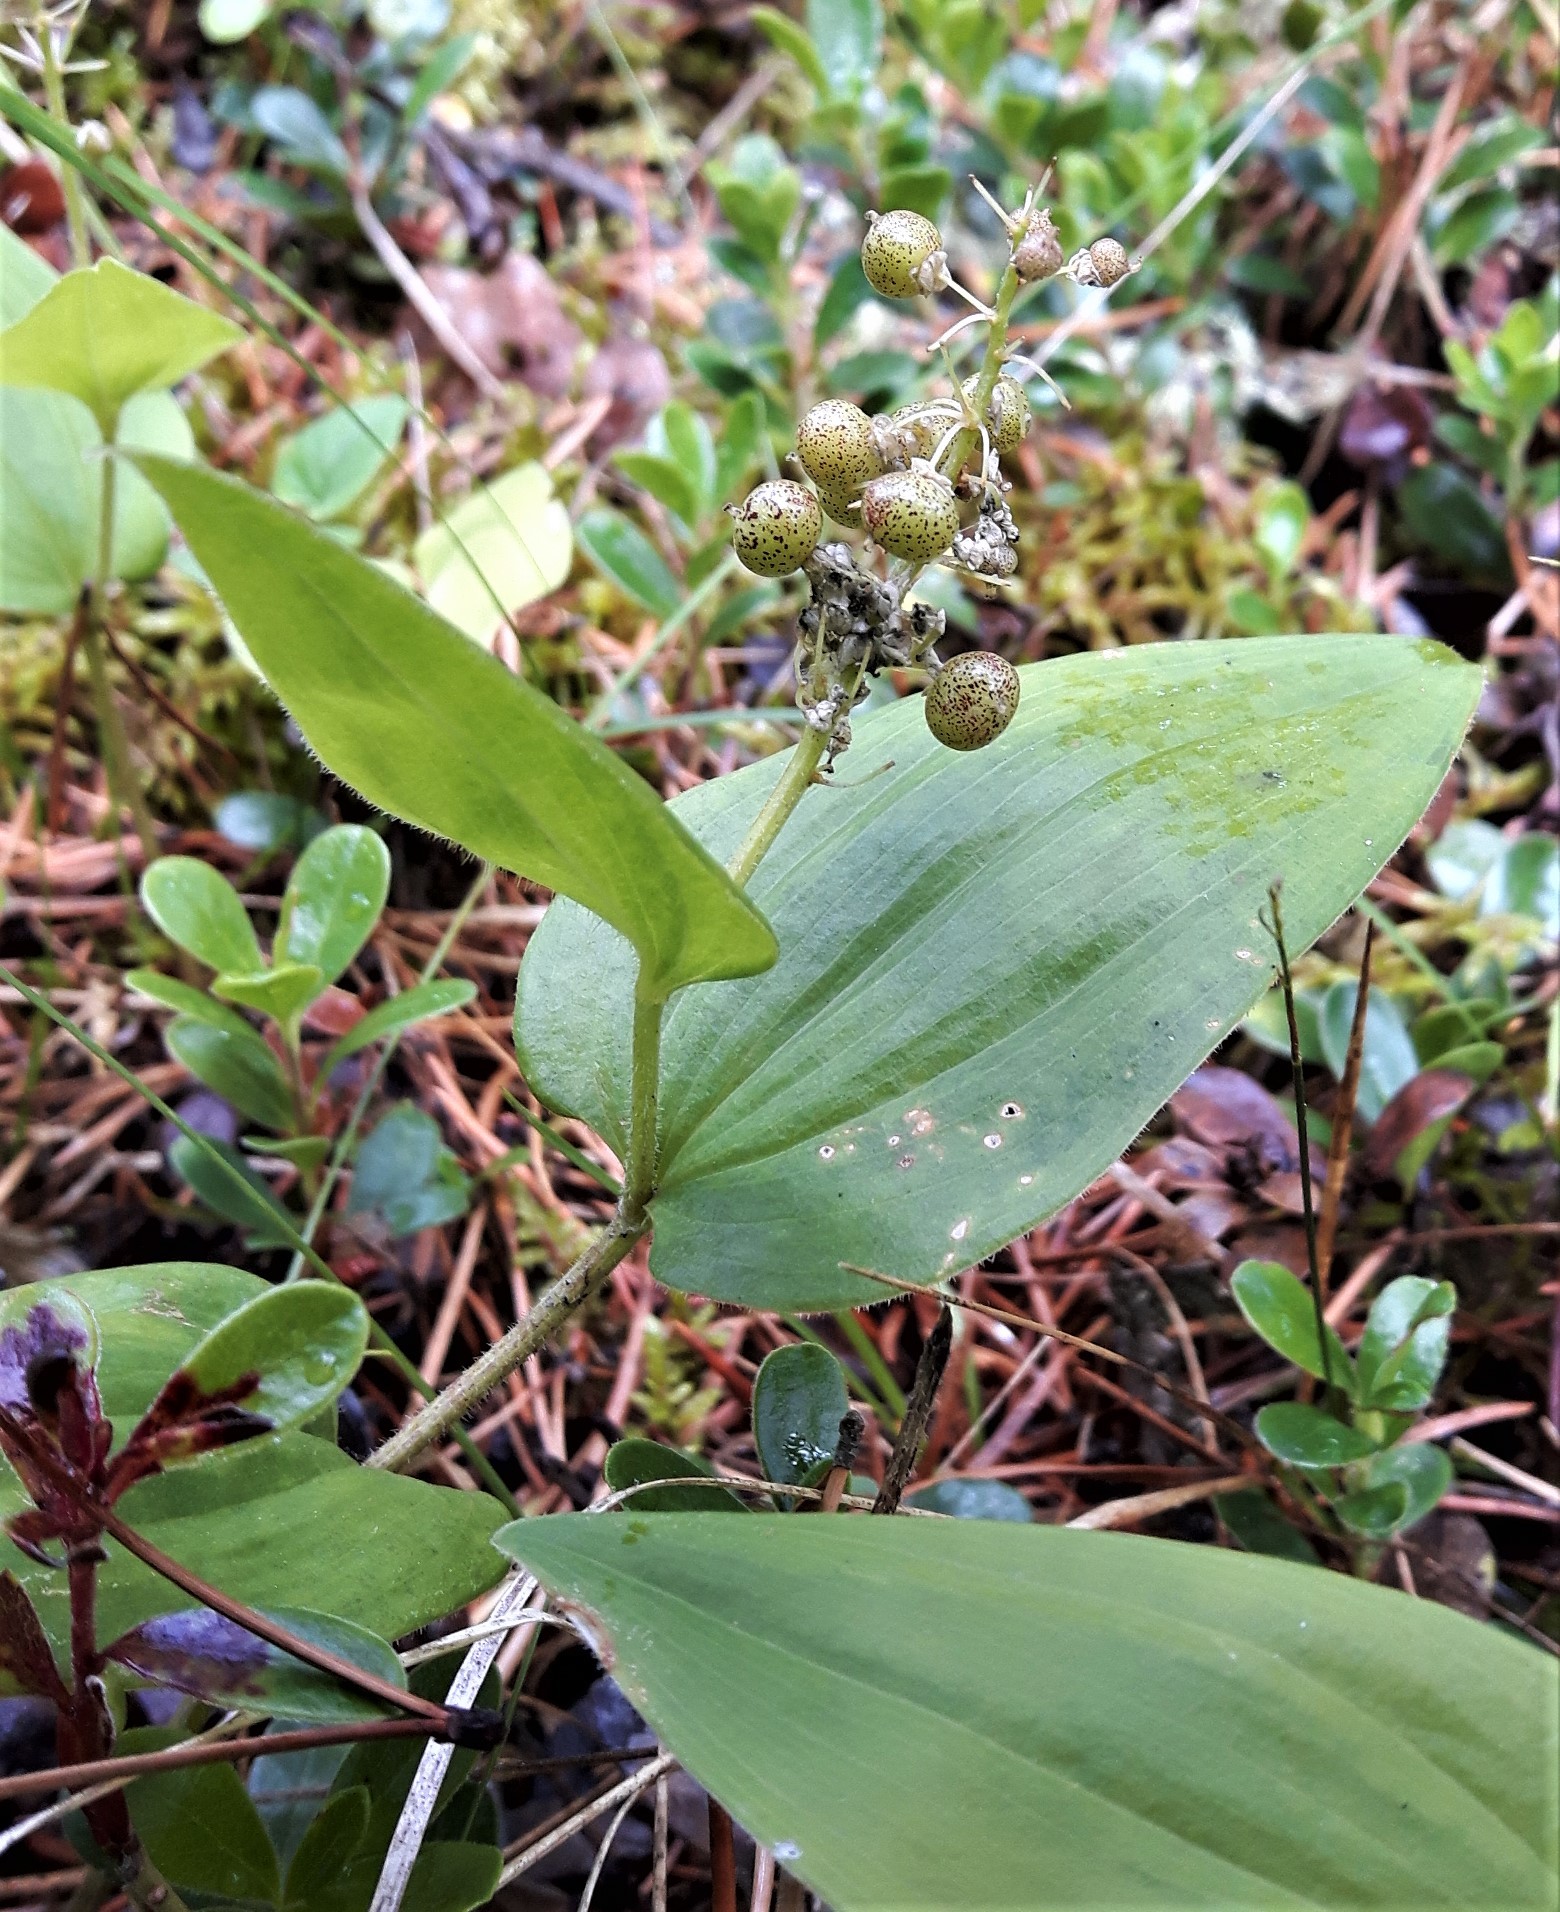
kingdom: Plantae
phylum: Tracheophyta
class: Liliopsida
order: Asparagales
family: Asparagaceae
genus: Maianthemum
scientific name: Maianthemum canadense
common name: False lily-of-the-valley
